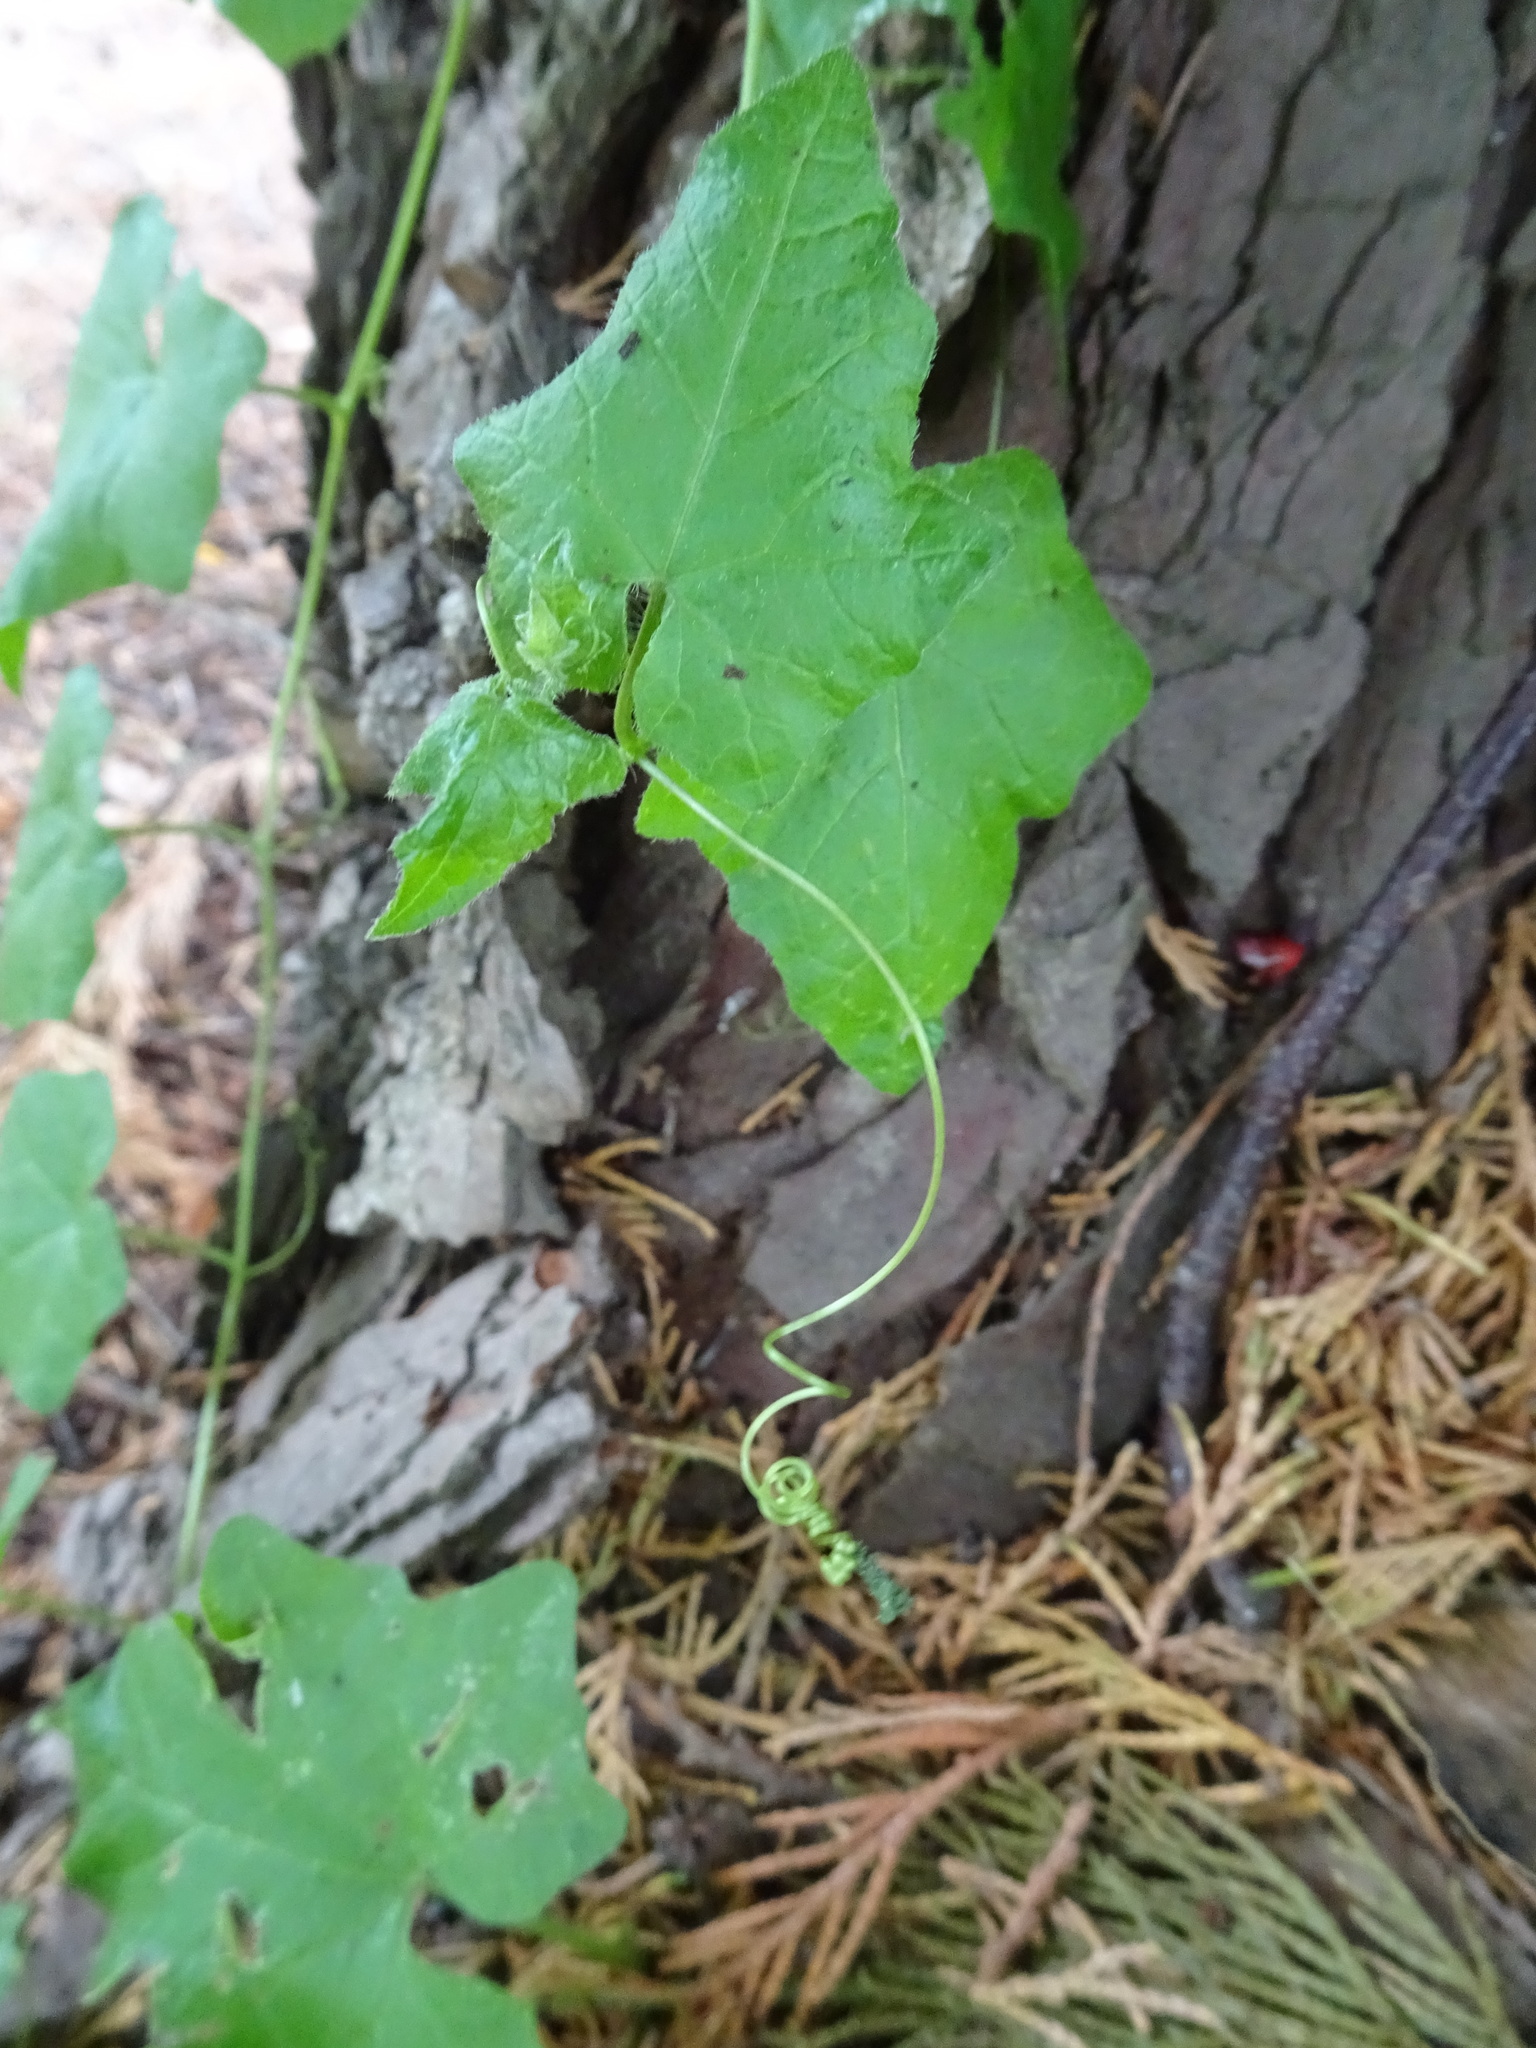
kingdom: Plantae
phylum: Tracheophyta
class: Magnoliopsida
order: Cucurbitales
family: Cucurbitaceae
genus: Bryonia
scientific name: Bryonia dioica
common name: White bryony
